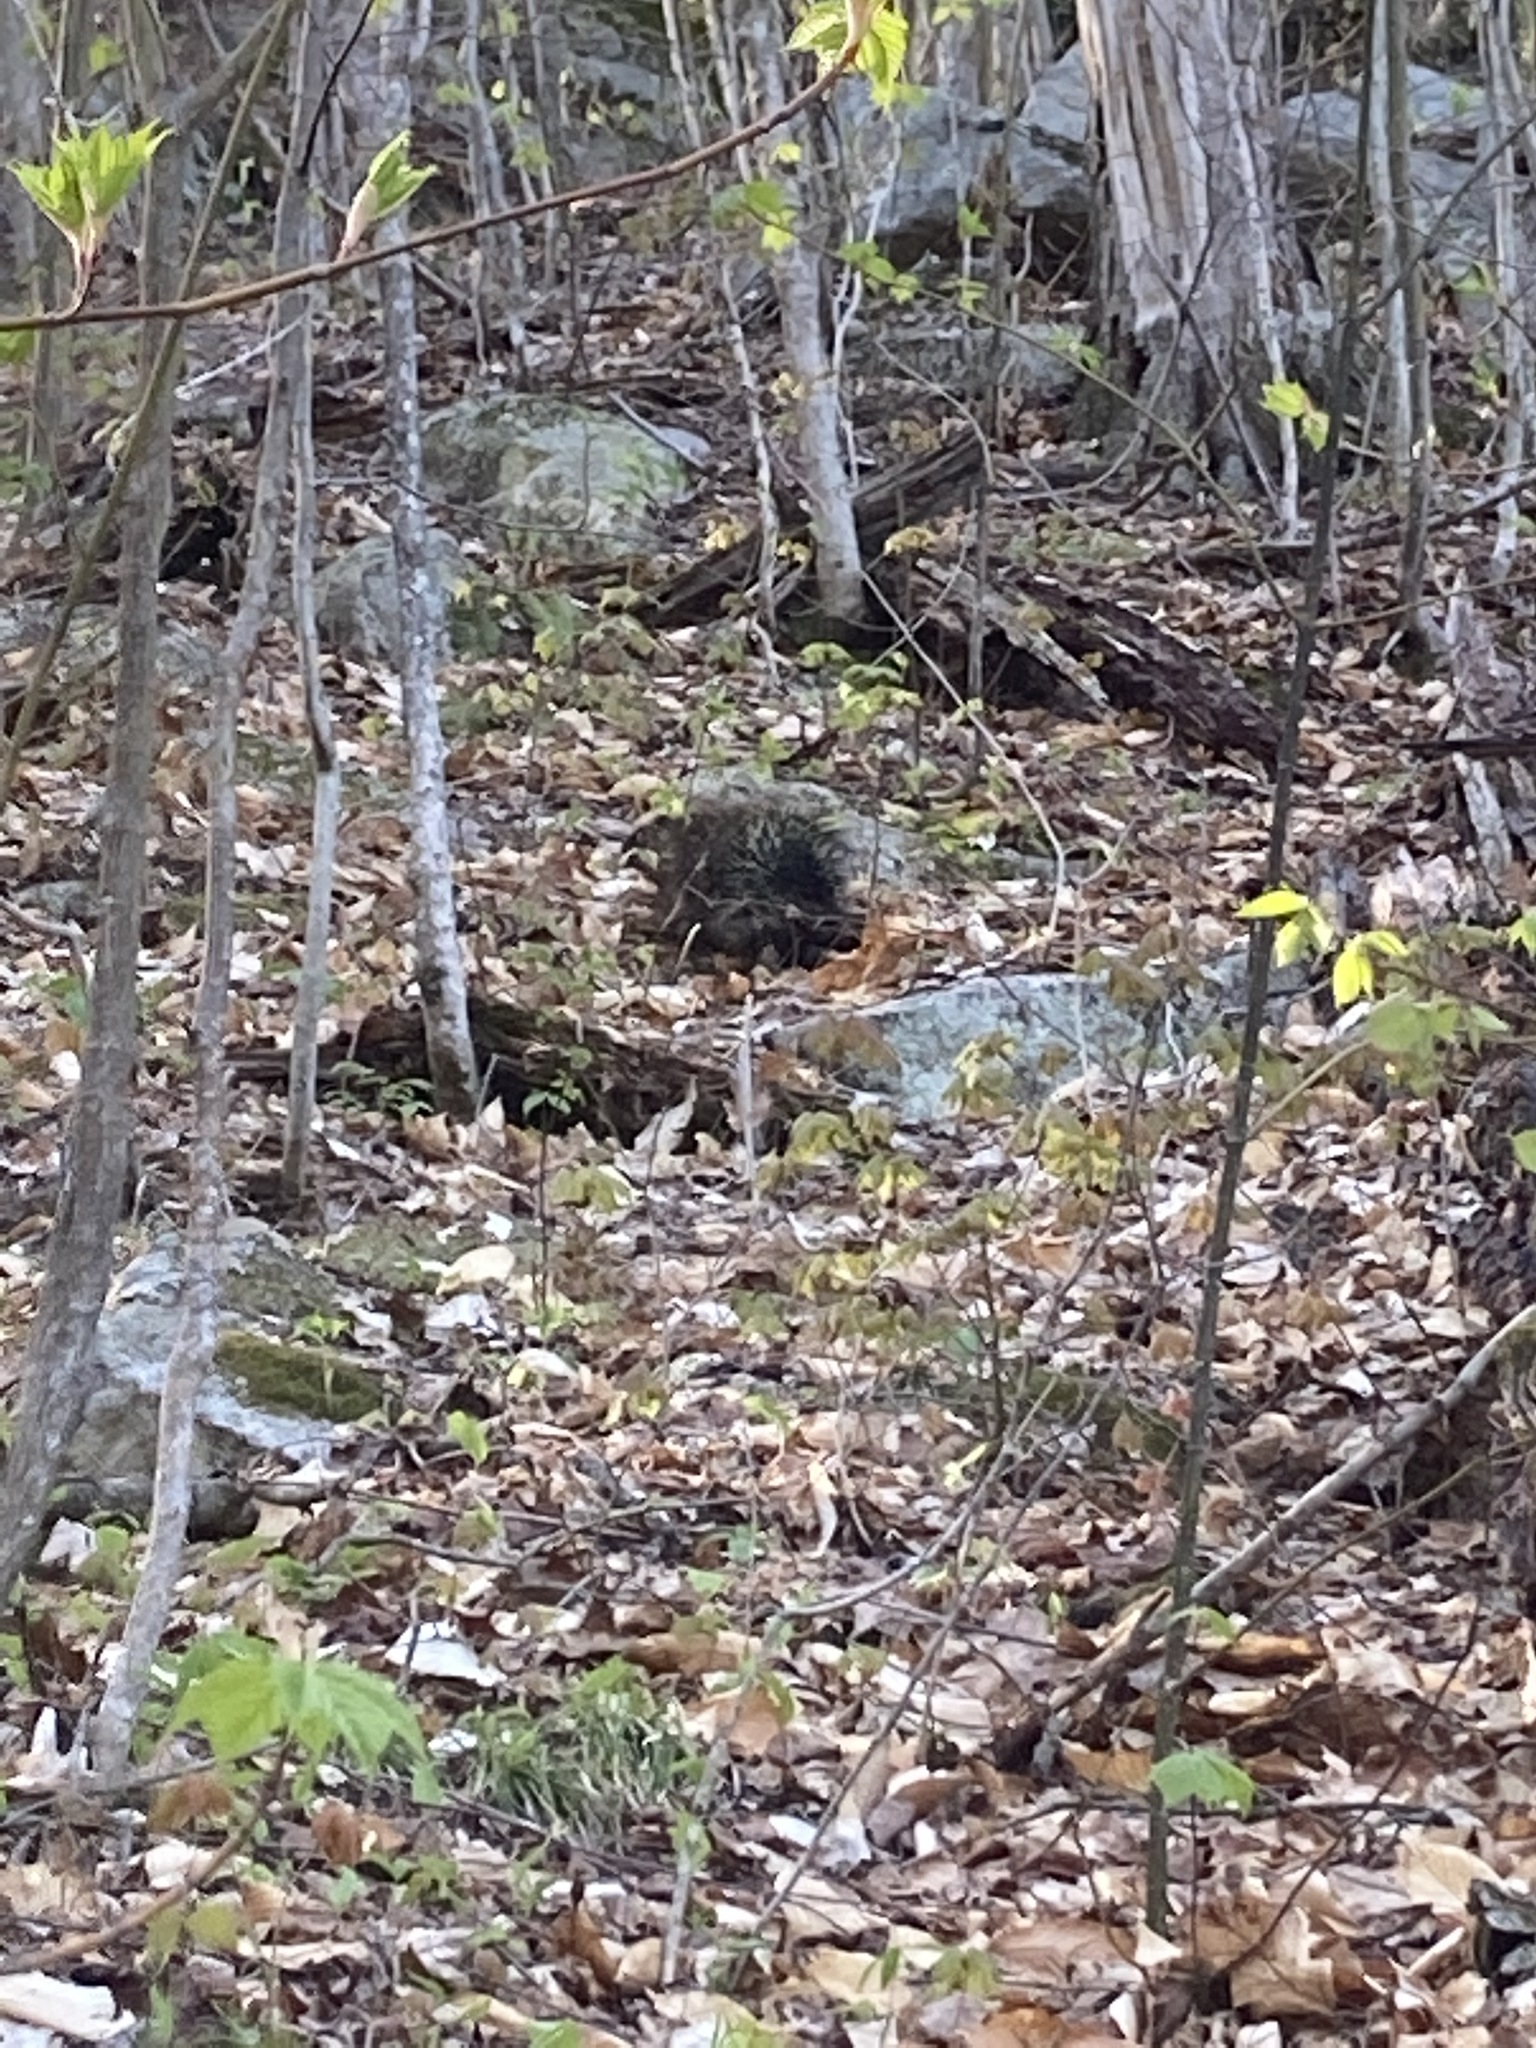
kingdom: Animalia
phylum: Chordata
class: Mammalia
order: Rodentia
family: Erethizontidae
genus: Erethizon
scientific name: Erethizon dorsatus
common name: North american porcupine
